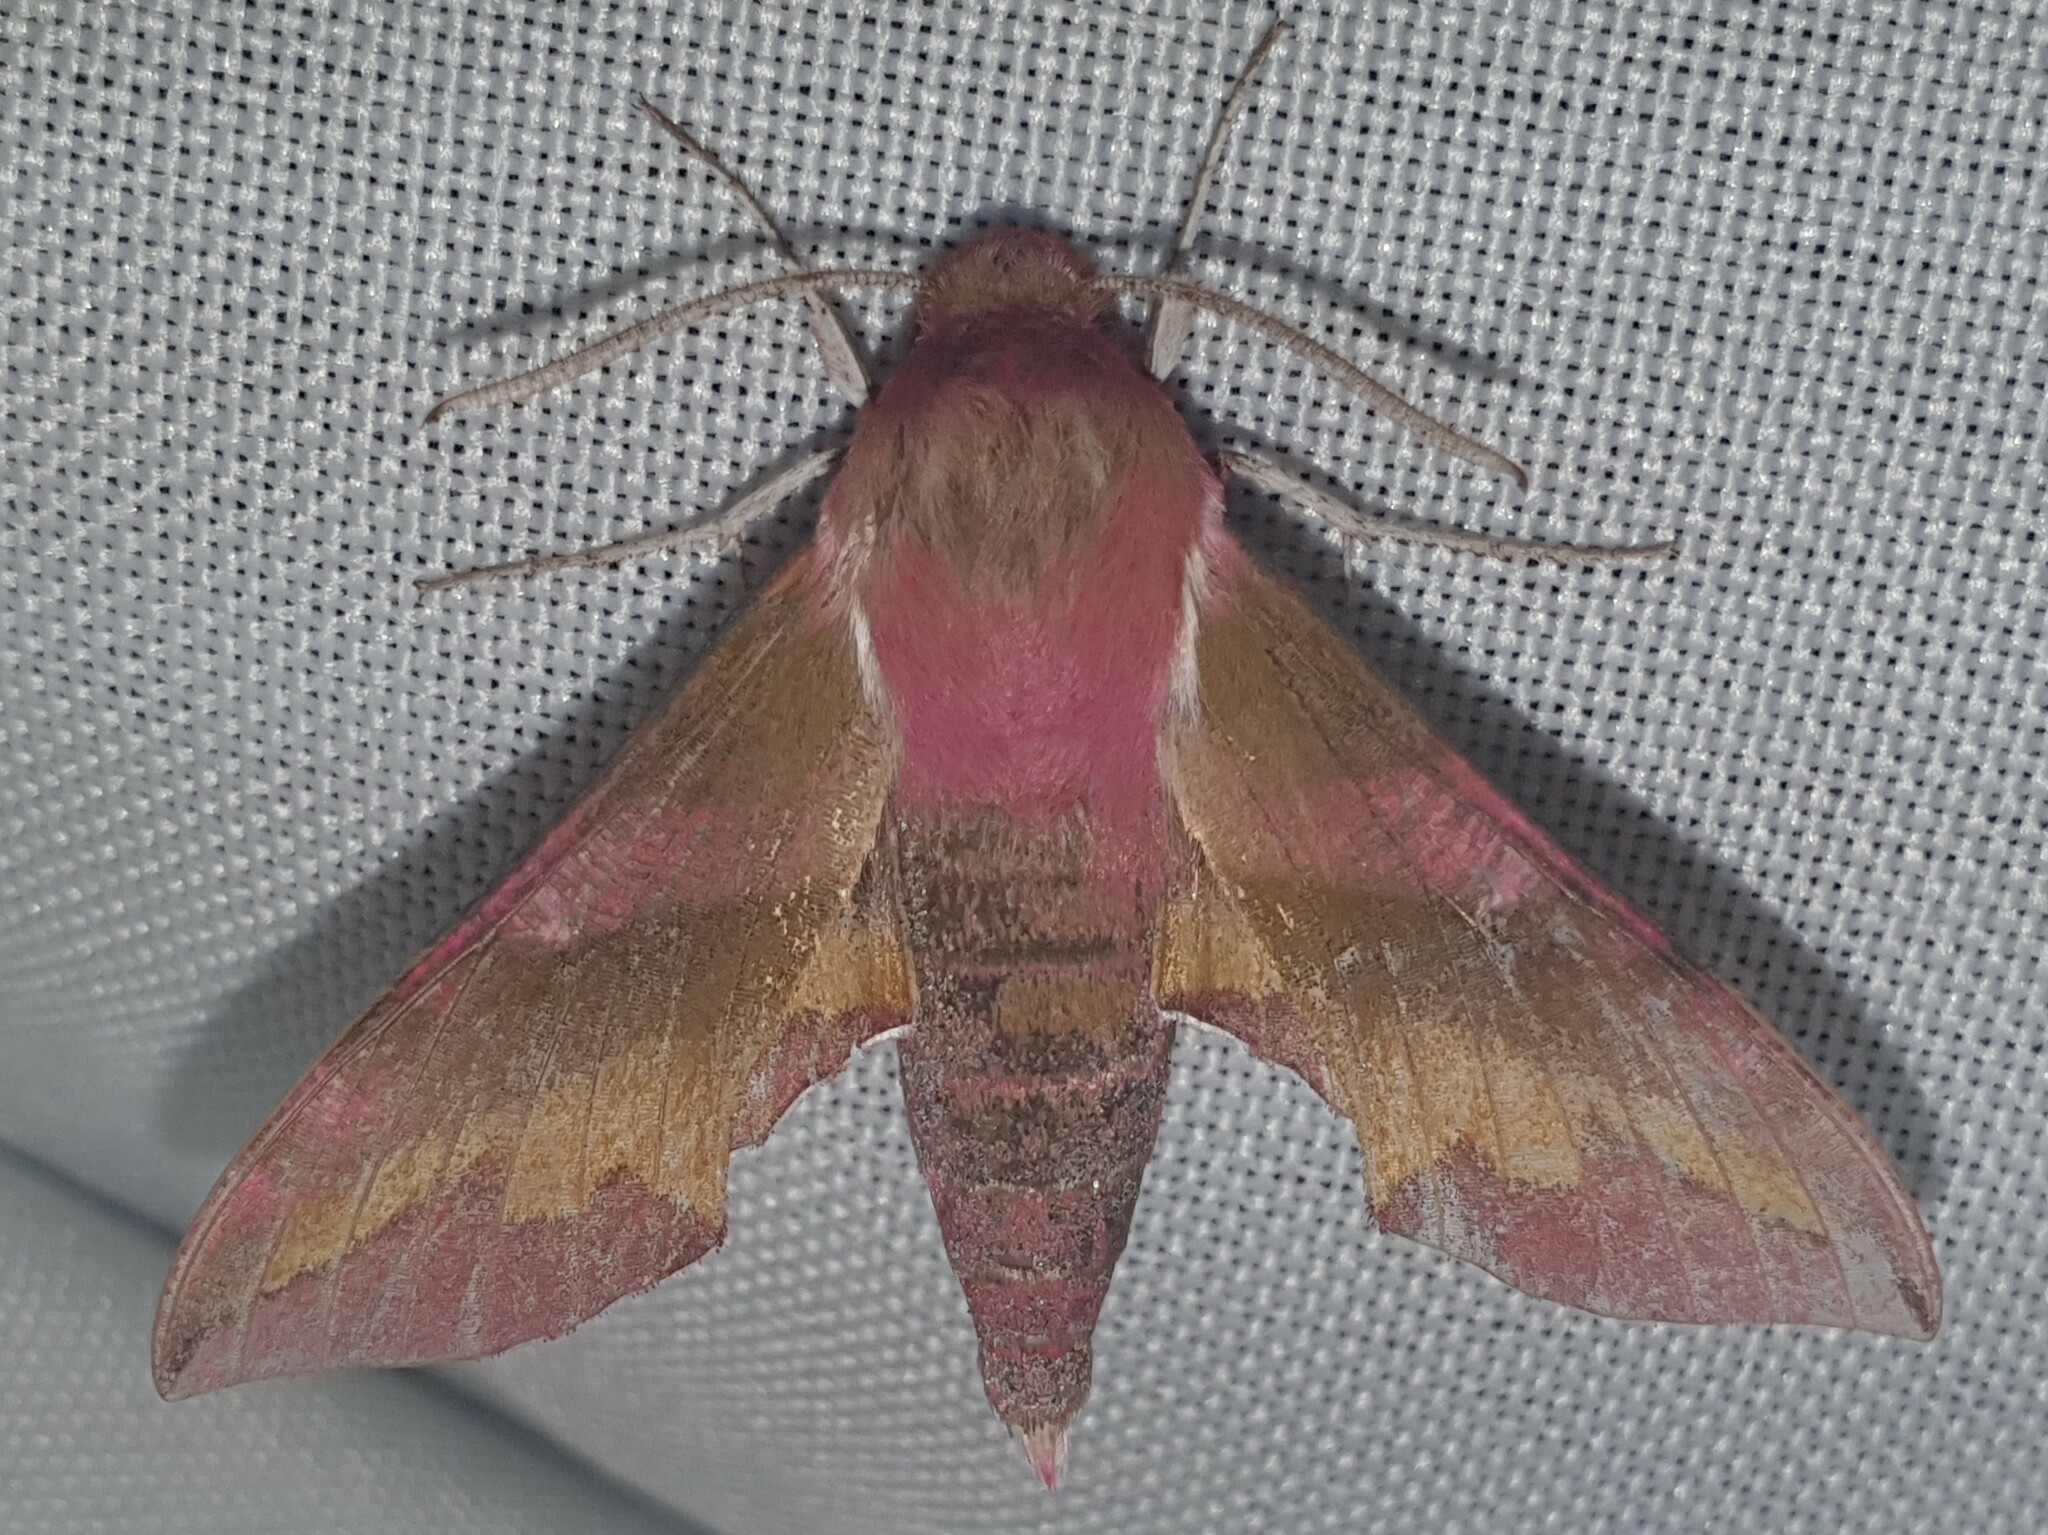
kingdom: Animalia
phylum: Arthropoda
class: Insecta
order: Lepidoptera
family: Sphingidae
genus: Deilephila
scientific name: Deilephila porcellus
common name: Small elephant hawk-moth
